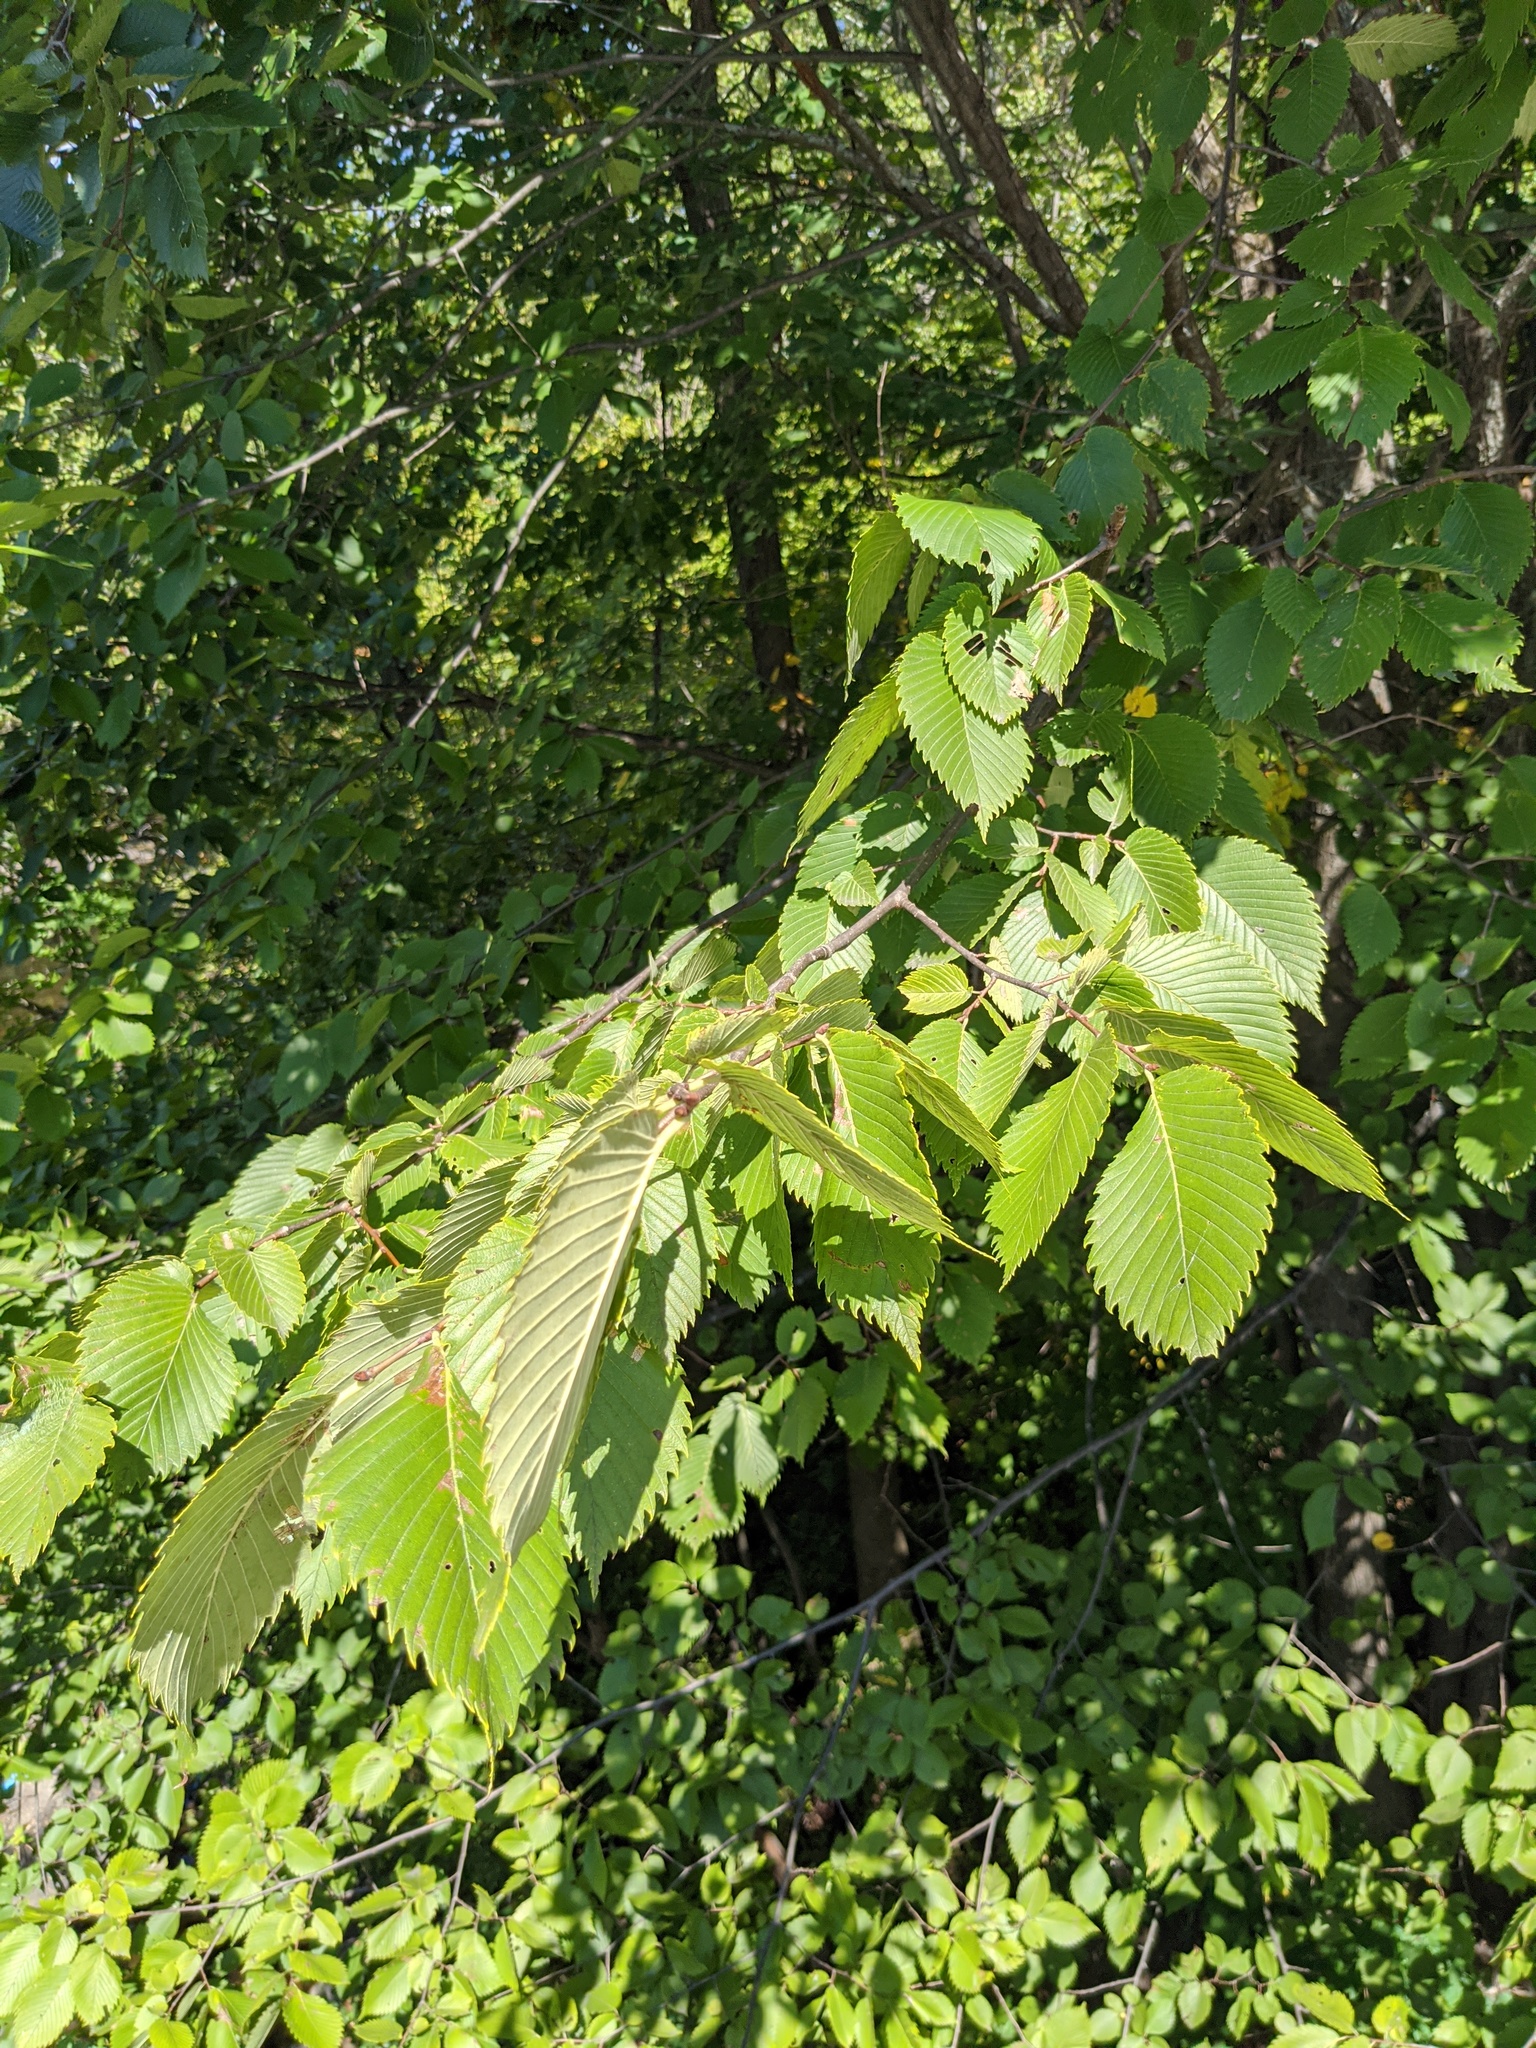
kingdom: Plantae
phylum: Tracheophyta
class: Magnoliopsida
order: Rosales
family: Ulmaceae
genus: Ulmus
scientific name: Ulmus americana
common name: American elm
